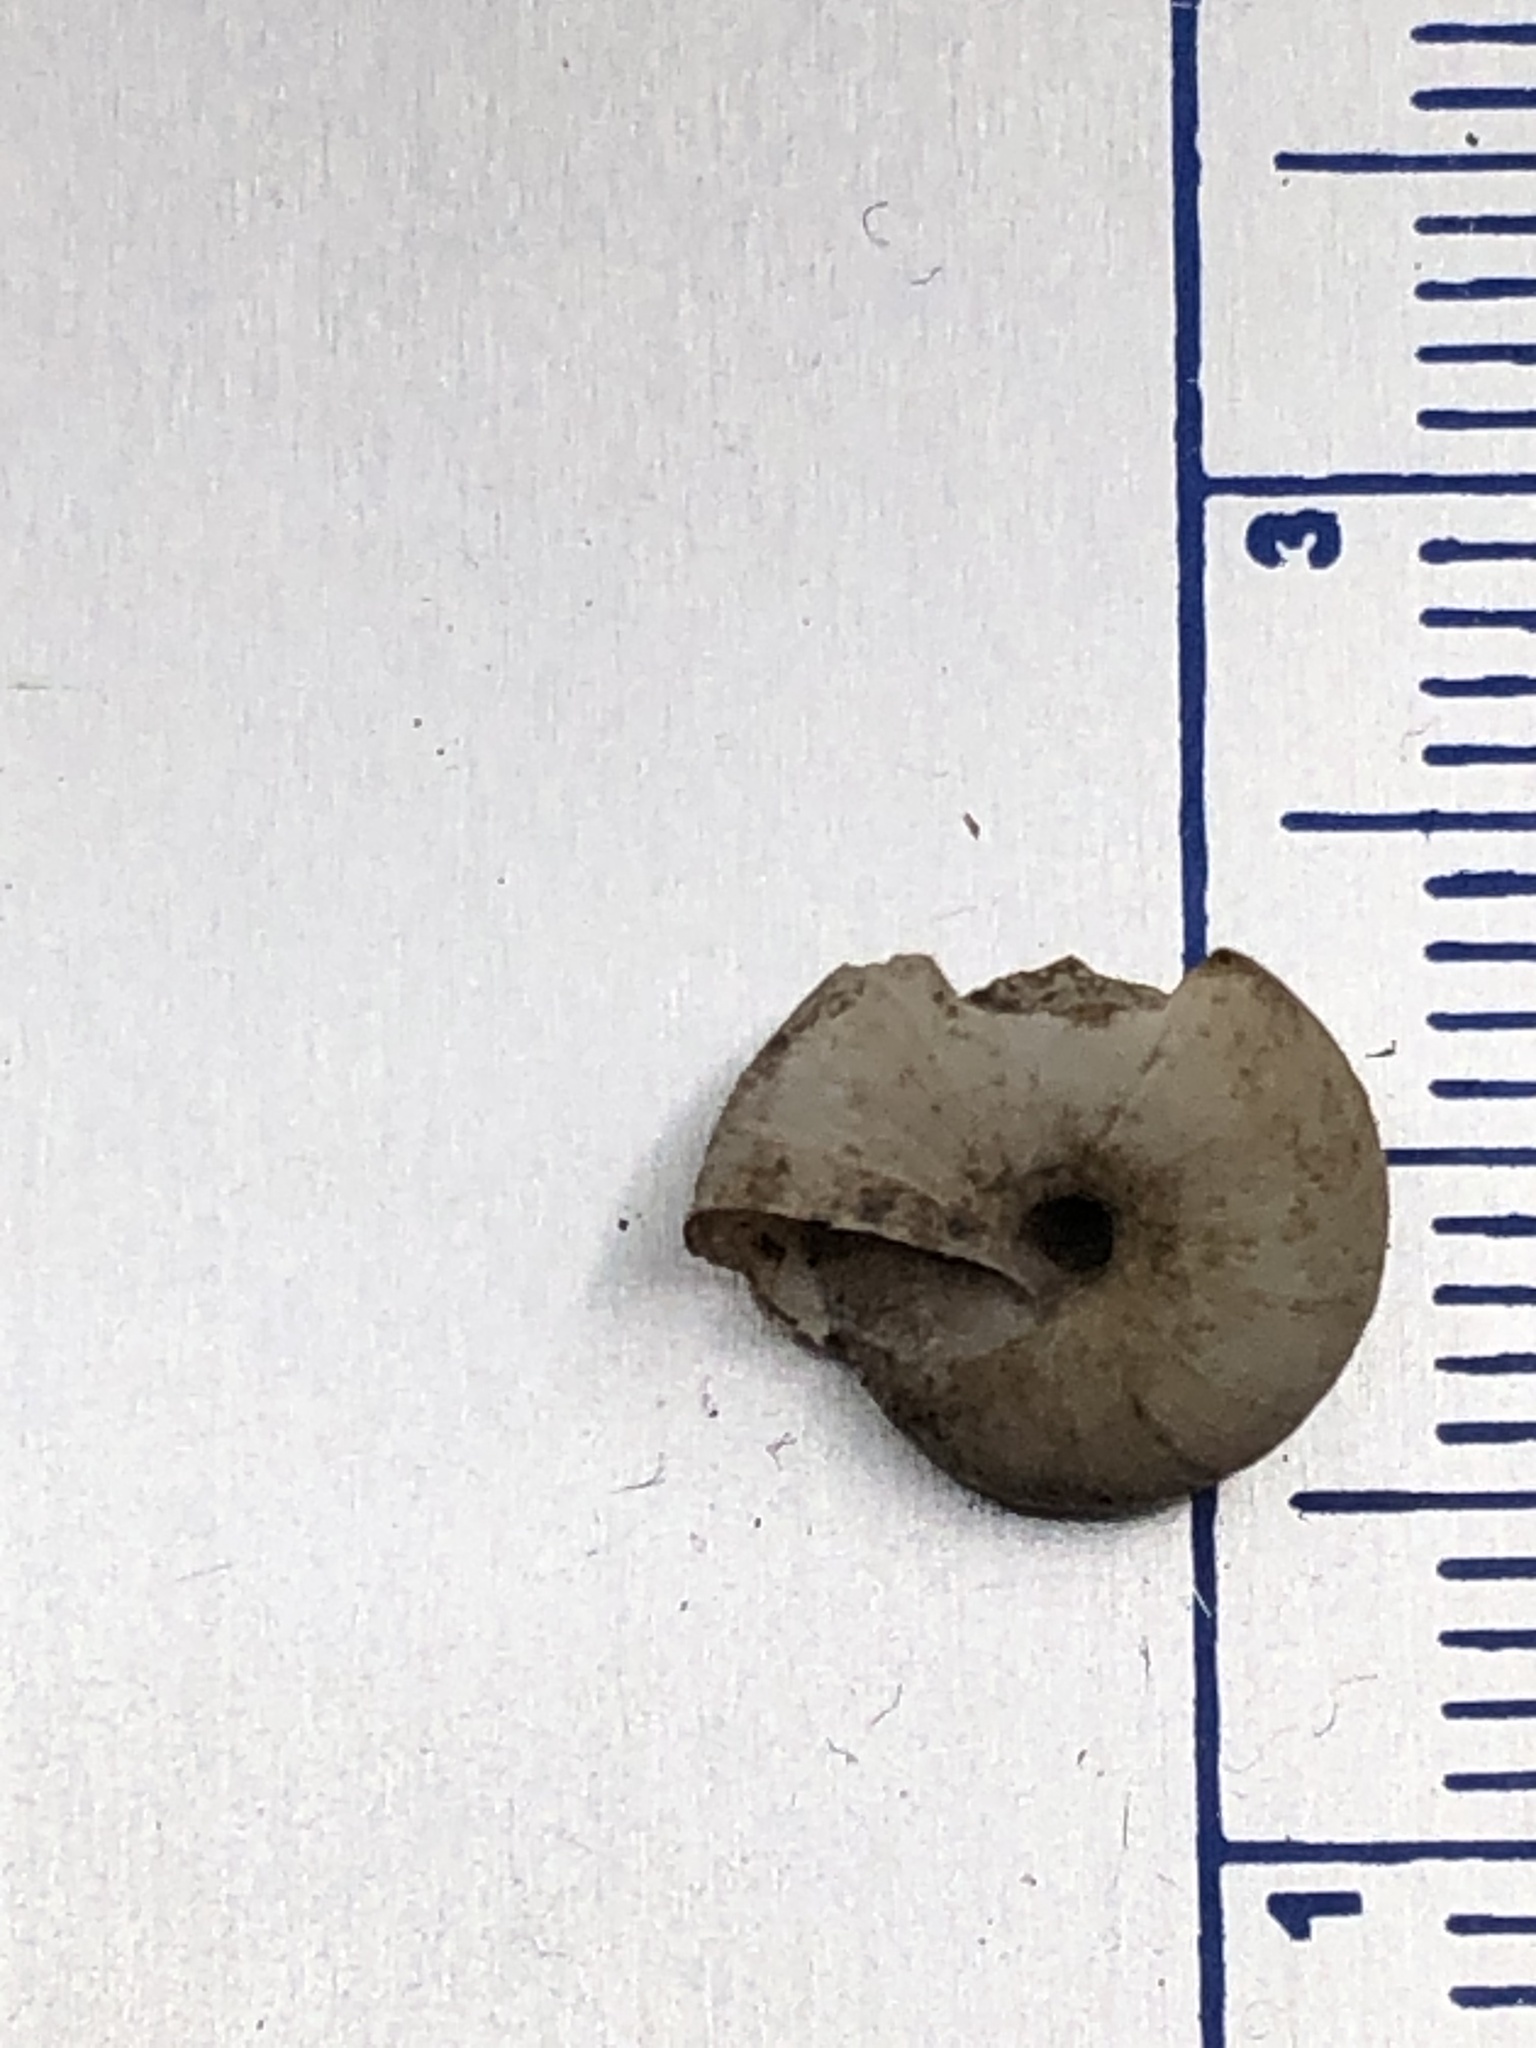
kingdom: Animalia
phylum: Mollusca
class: Gastropoda
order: Stylommatophora
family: Hygromiidae
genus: Trochulus
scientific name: Trochulus hispidus
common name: Hairy snail
